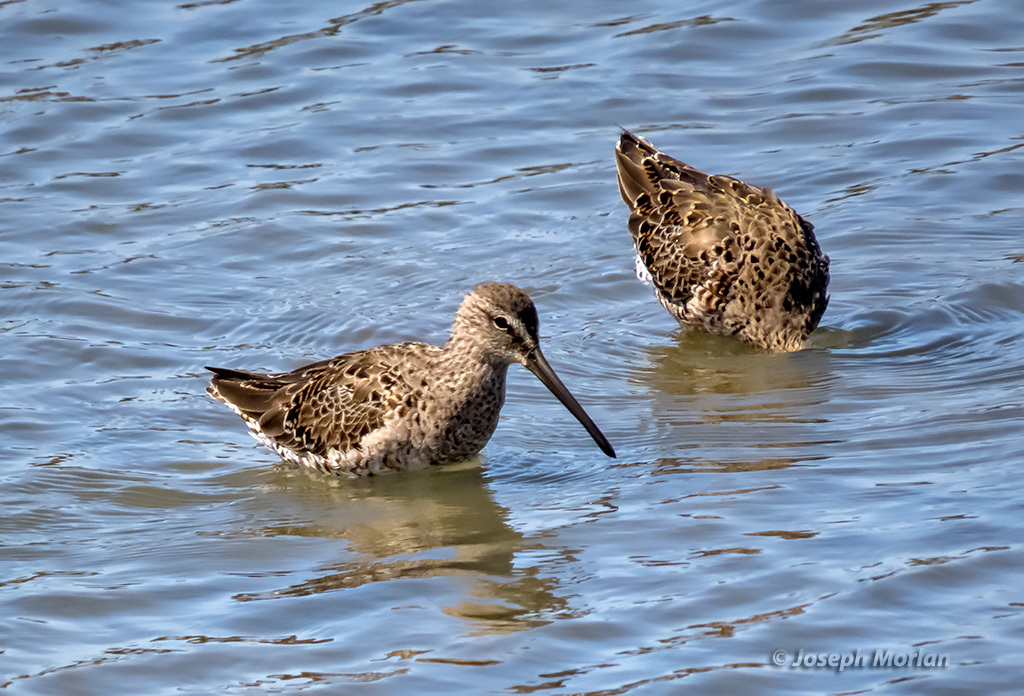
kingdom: Animalia
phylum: Chordata
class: Aves
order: Charadriiformes
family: Scolopacidae
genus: Limnodromus
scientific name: Limnodromus scolopaceus
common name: Long-billed dowitcher
